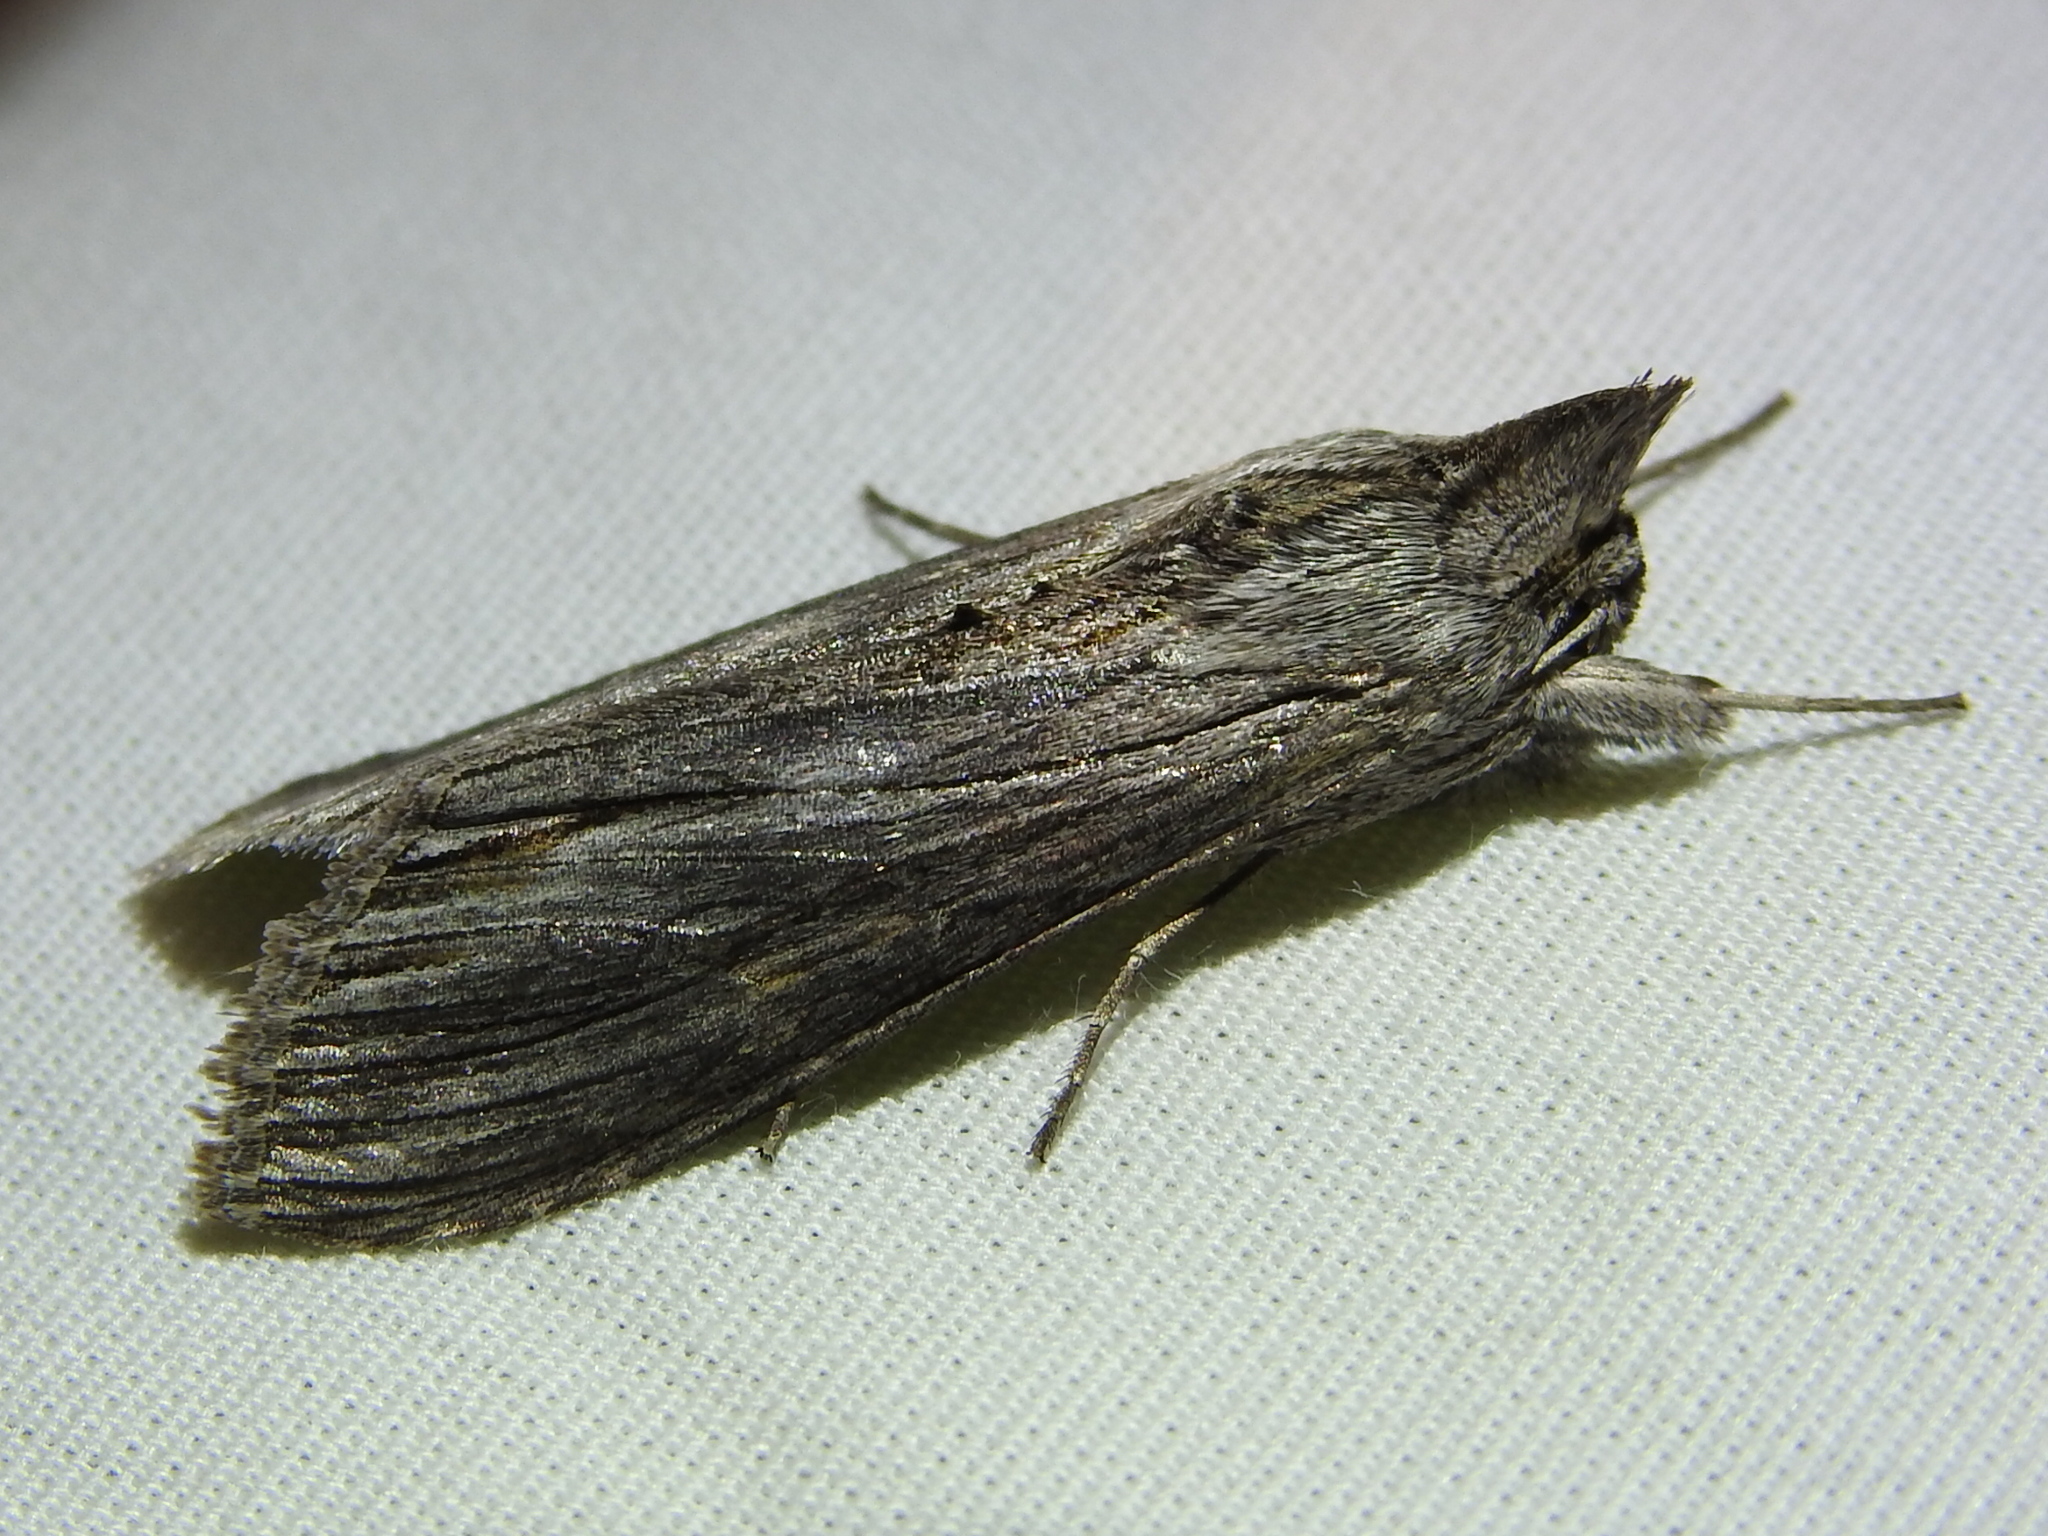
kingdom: Animalia
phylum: Arthropoda
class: Insecta
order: Lepidoptera
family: Noctuidae
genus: Cucullia
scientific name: Cucullia laetifica
